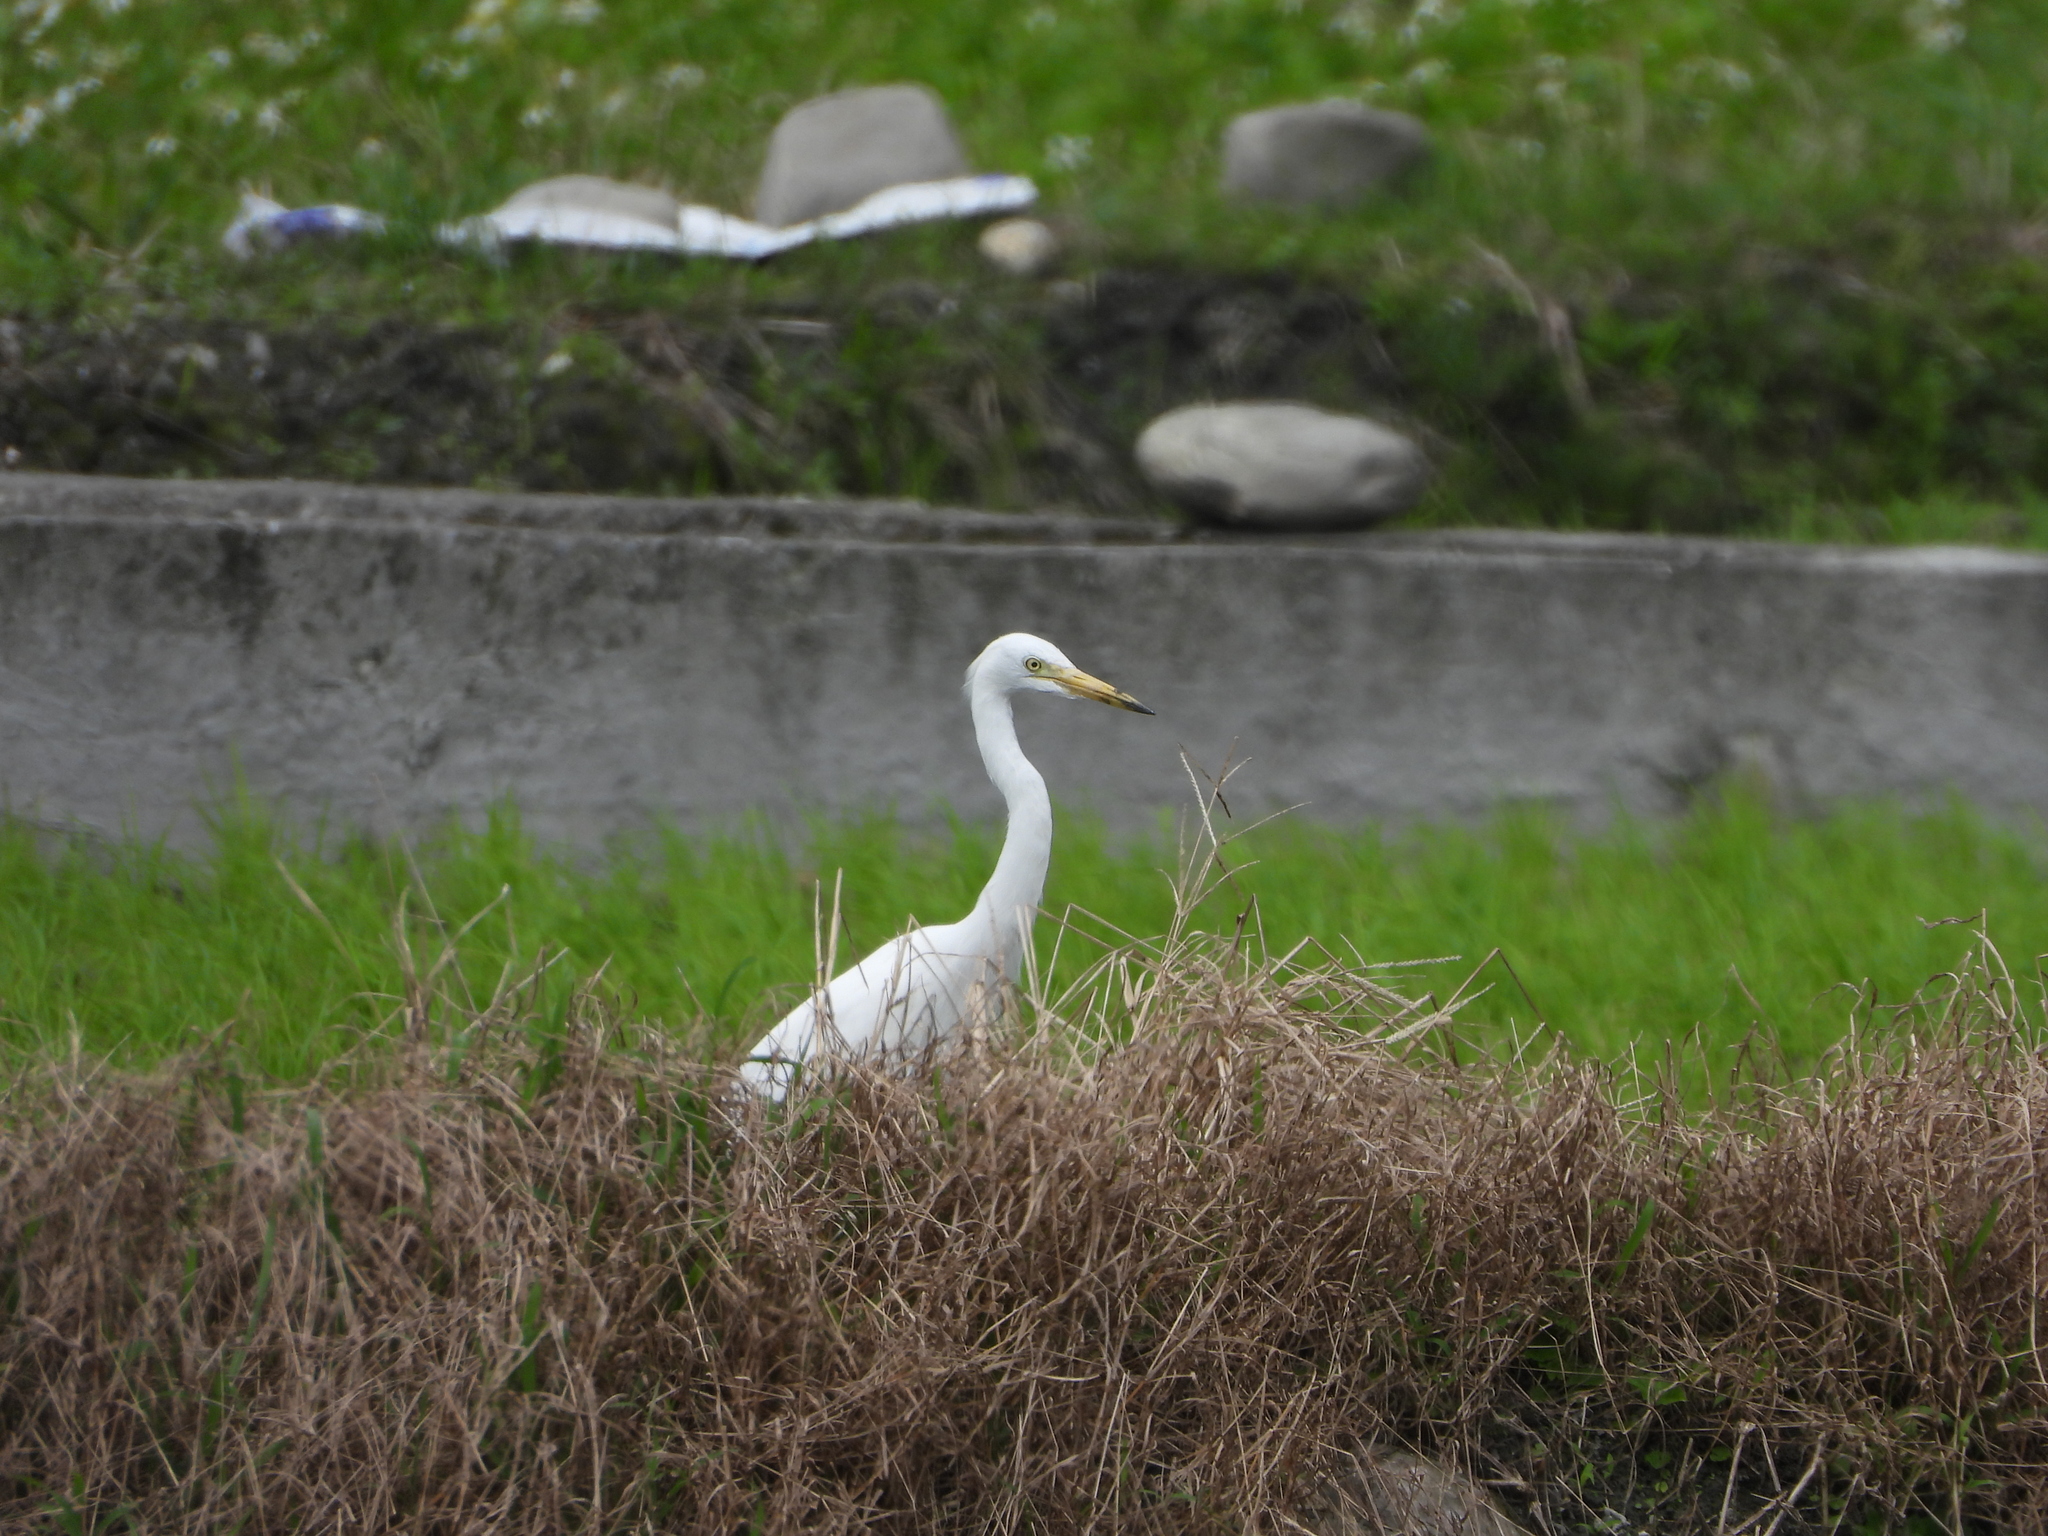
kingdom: Animalia
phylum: Chordata
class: Aves
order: Pelecaniformes
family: Ardeidae
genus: Egretta
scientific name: Egretta intermedia
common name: Intermediate egret
